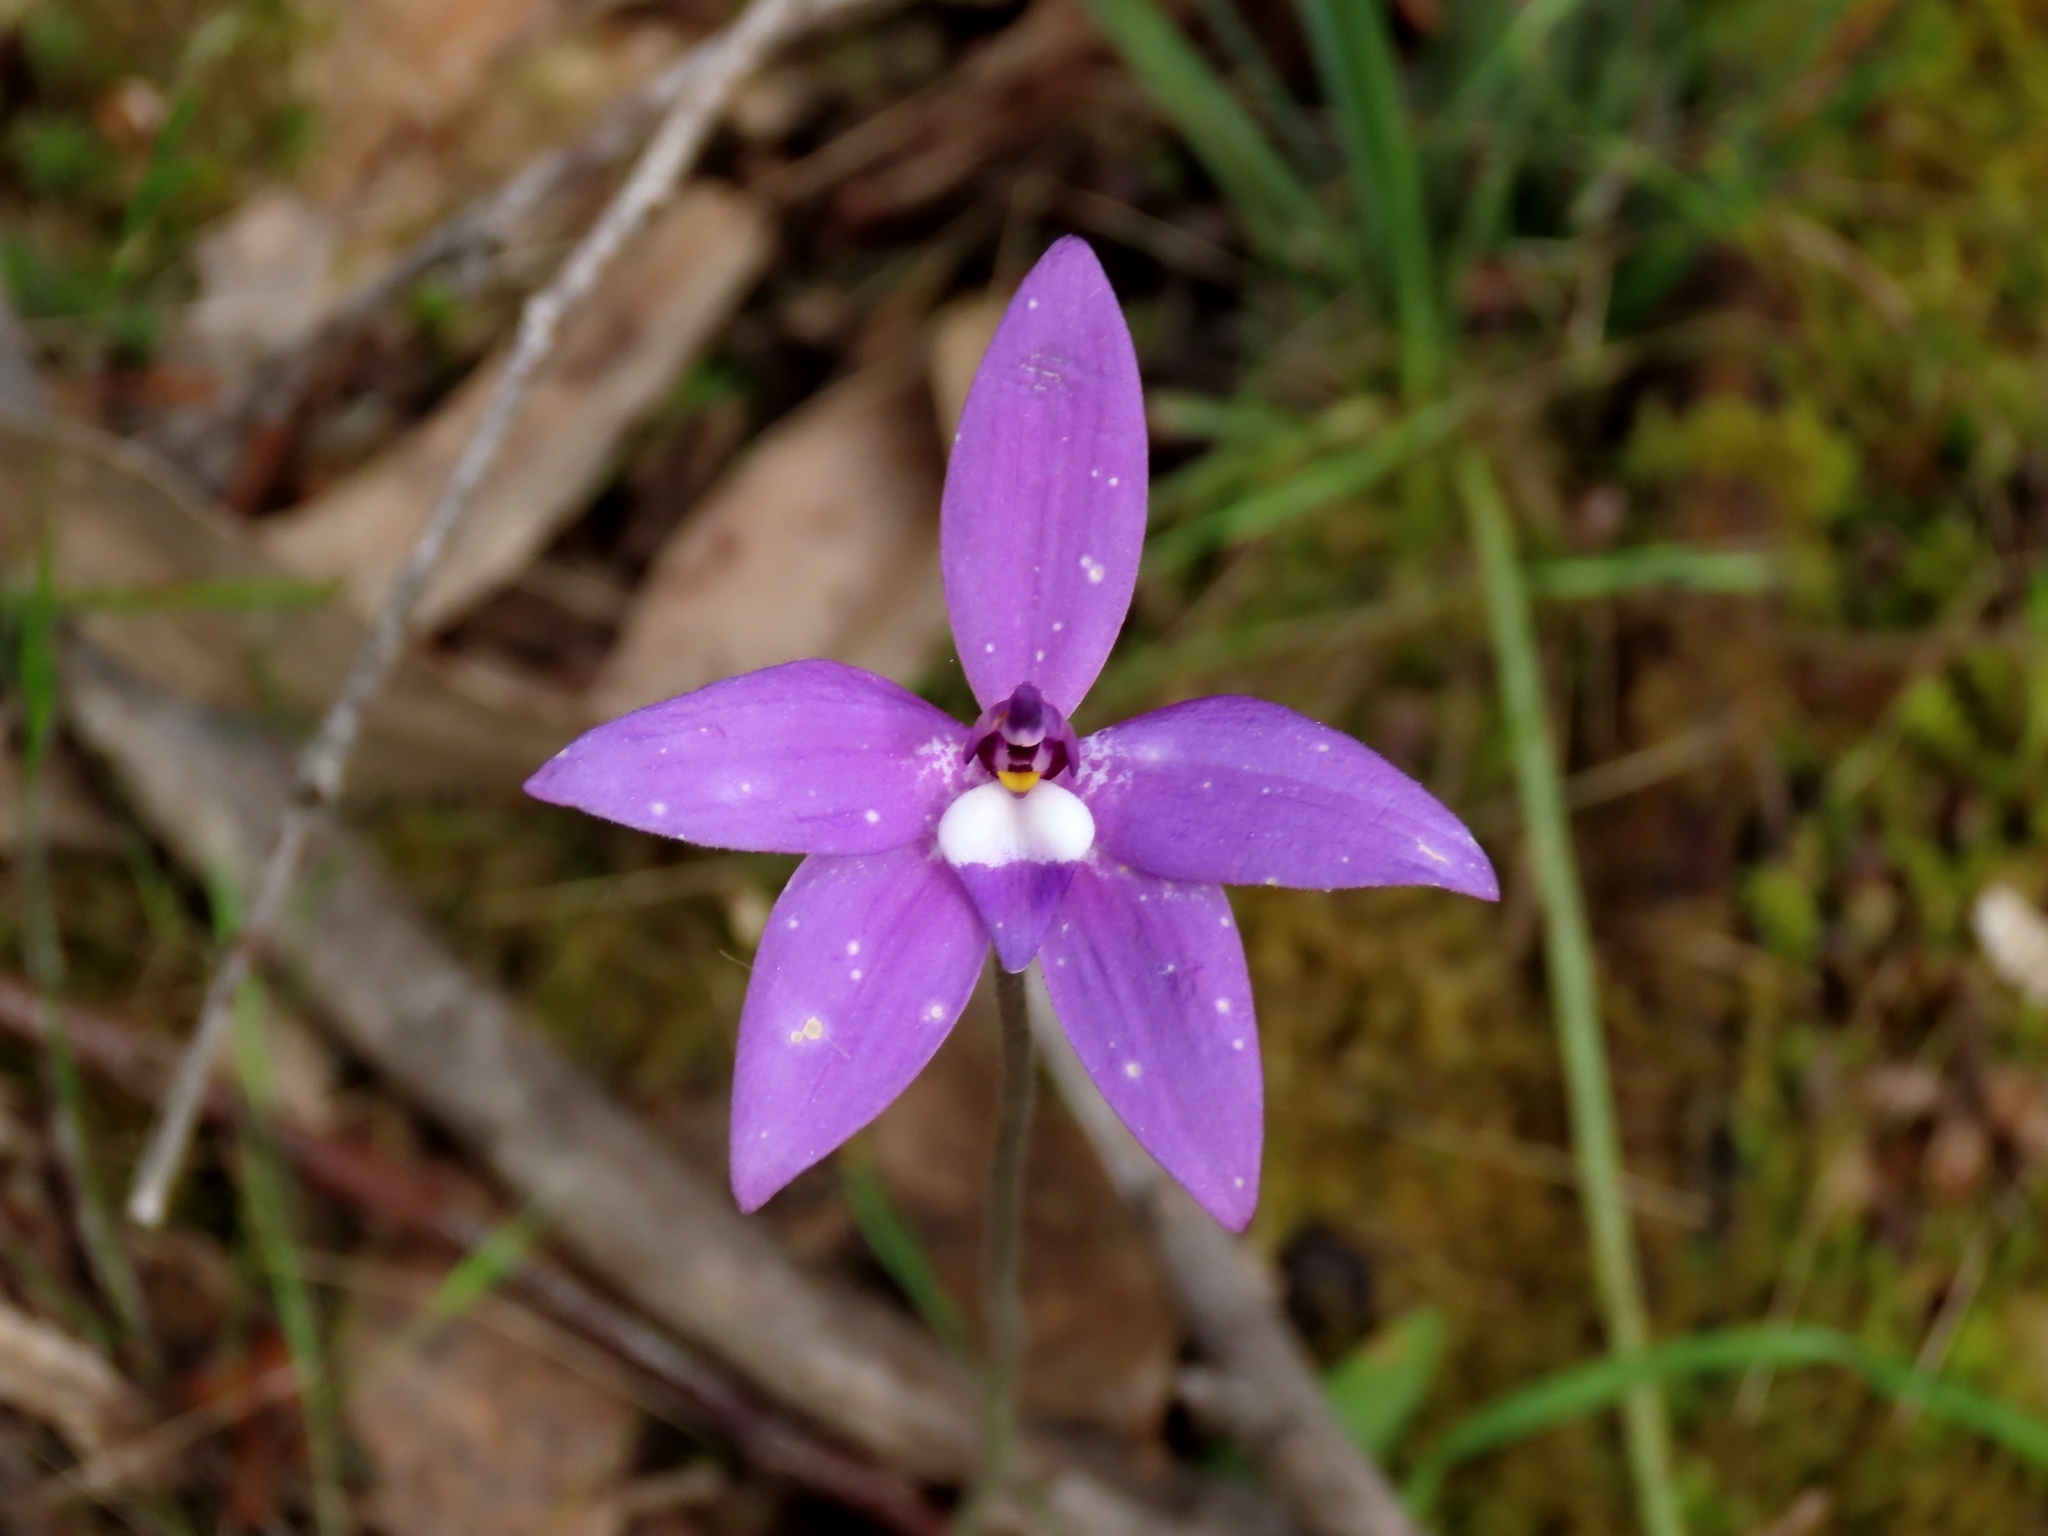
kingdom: Plantae
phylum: Tracheophyta
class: Liliopsida
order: Asparagales
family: Orchidaceae
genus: Caladenia
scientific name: Caladenia major
